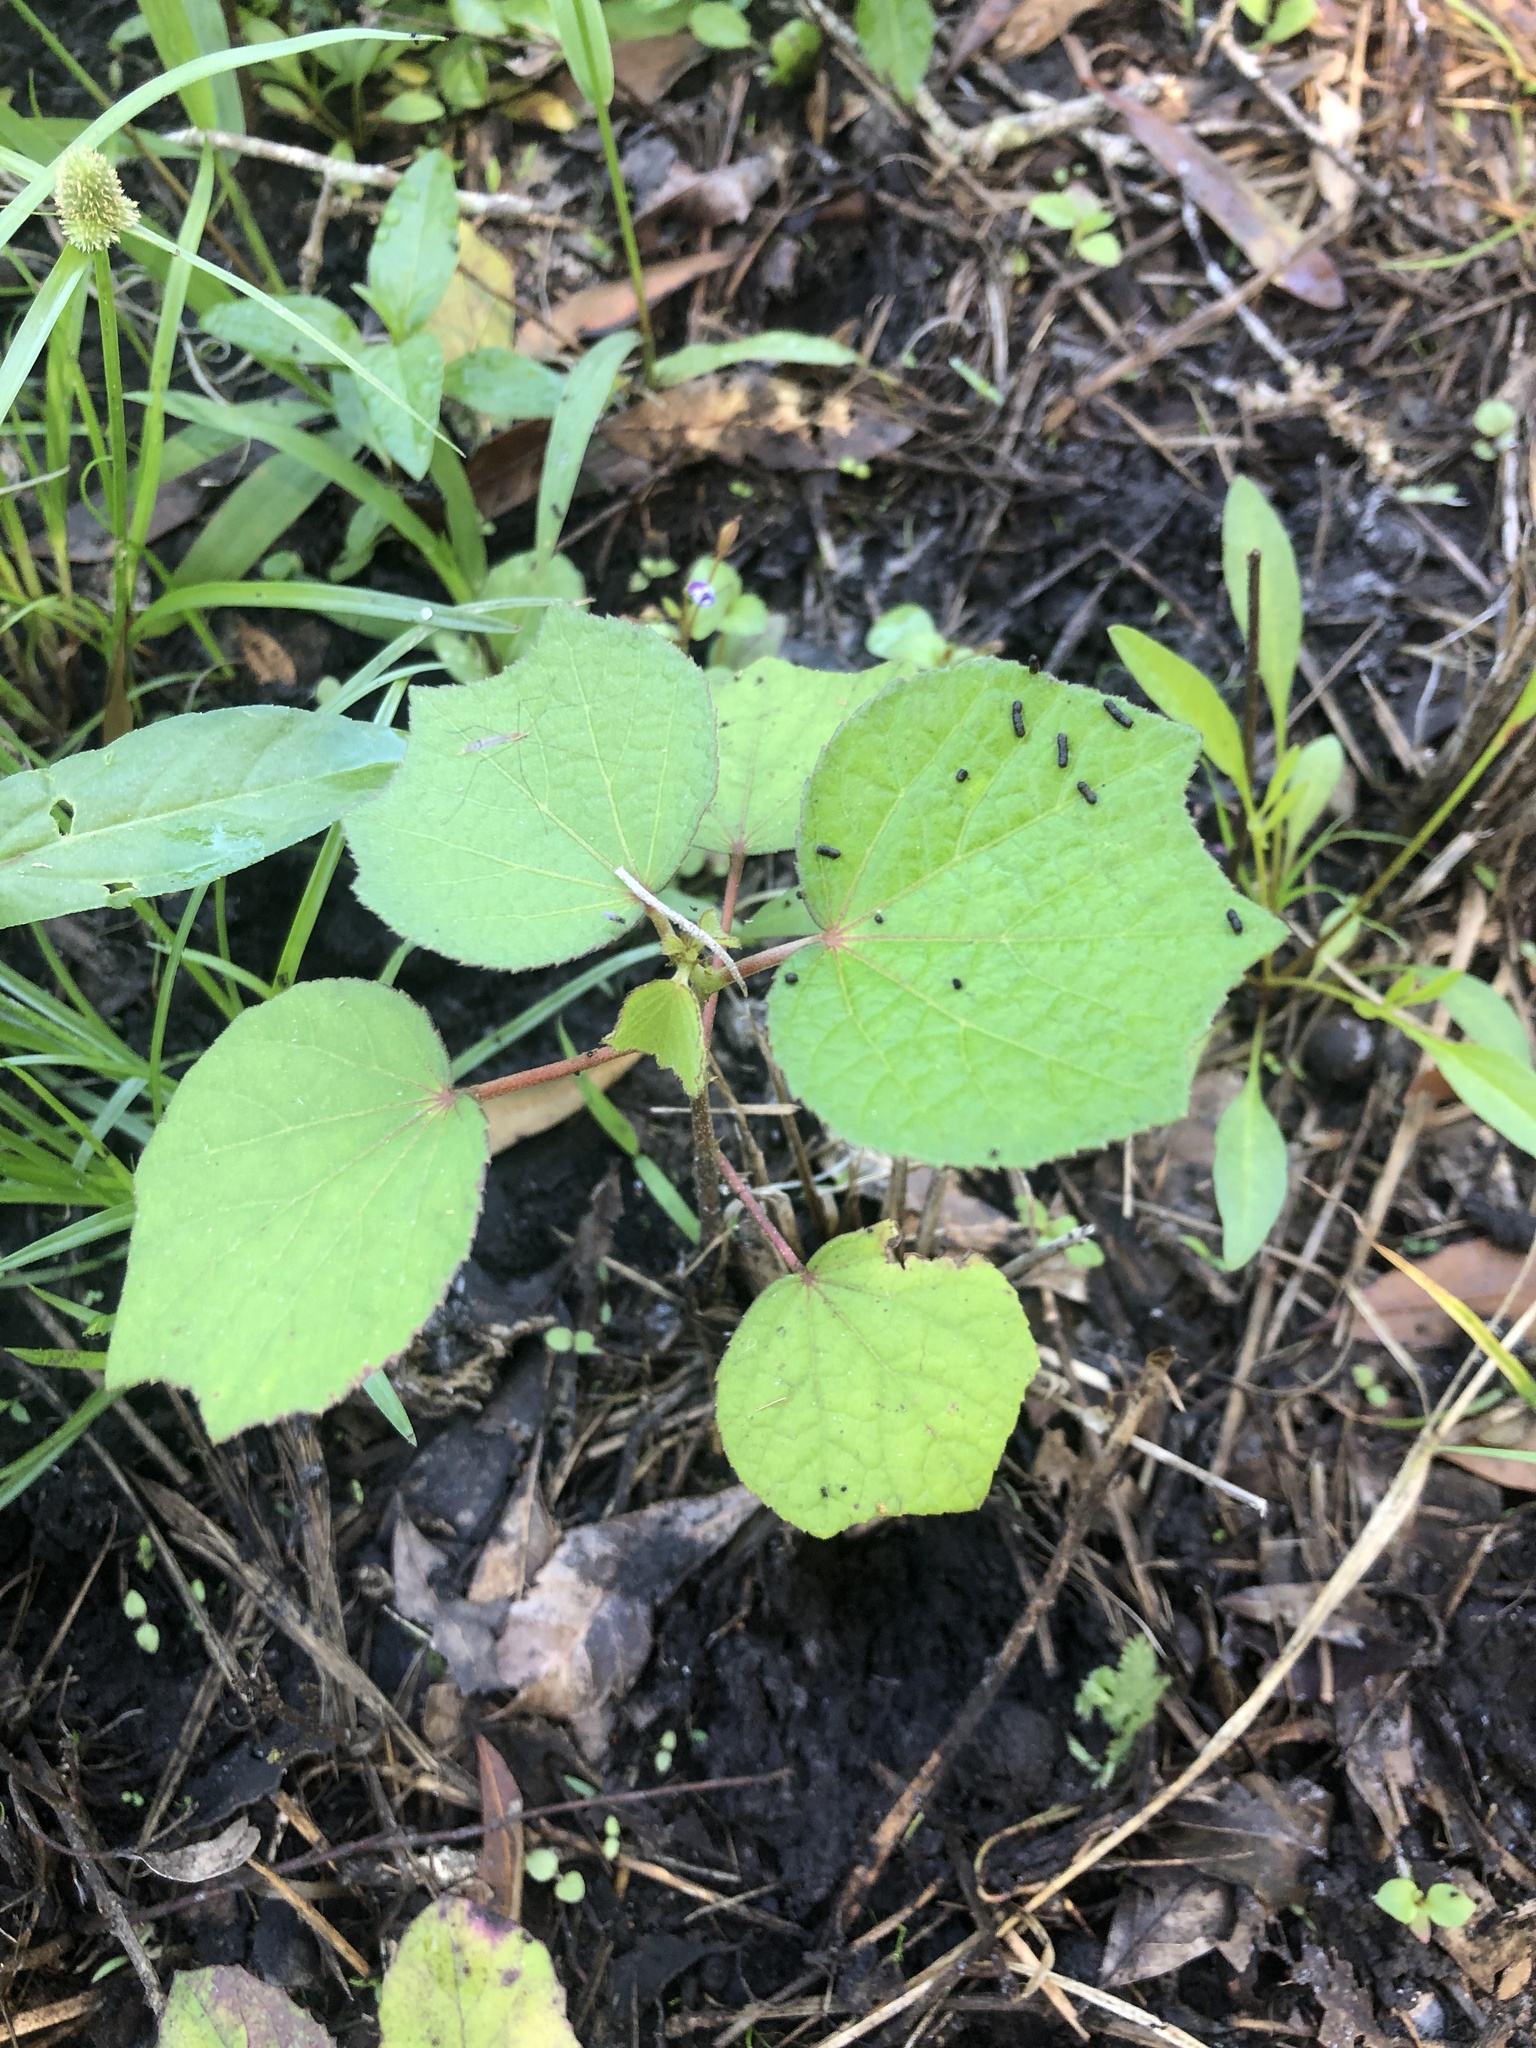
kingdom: Plantae
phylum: Tracheophyta
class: Magnoliopsida
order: Malvales
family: Malvaceae
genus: Urena
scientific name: Urena lobata
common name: Caesarweed
